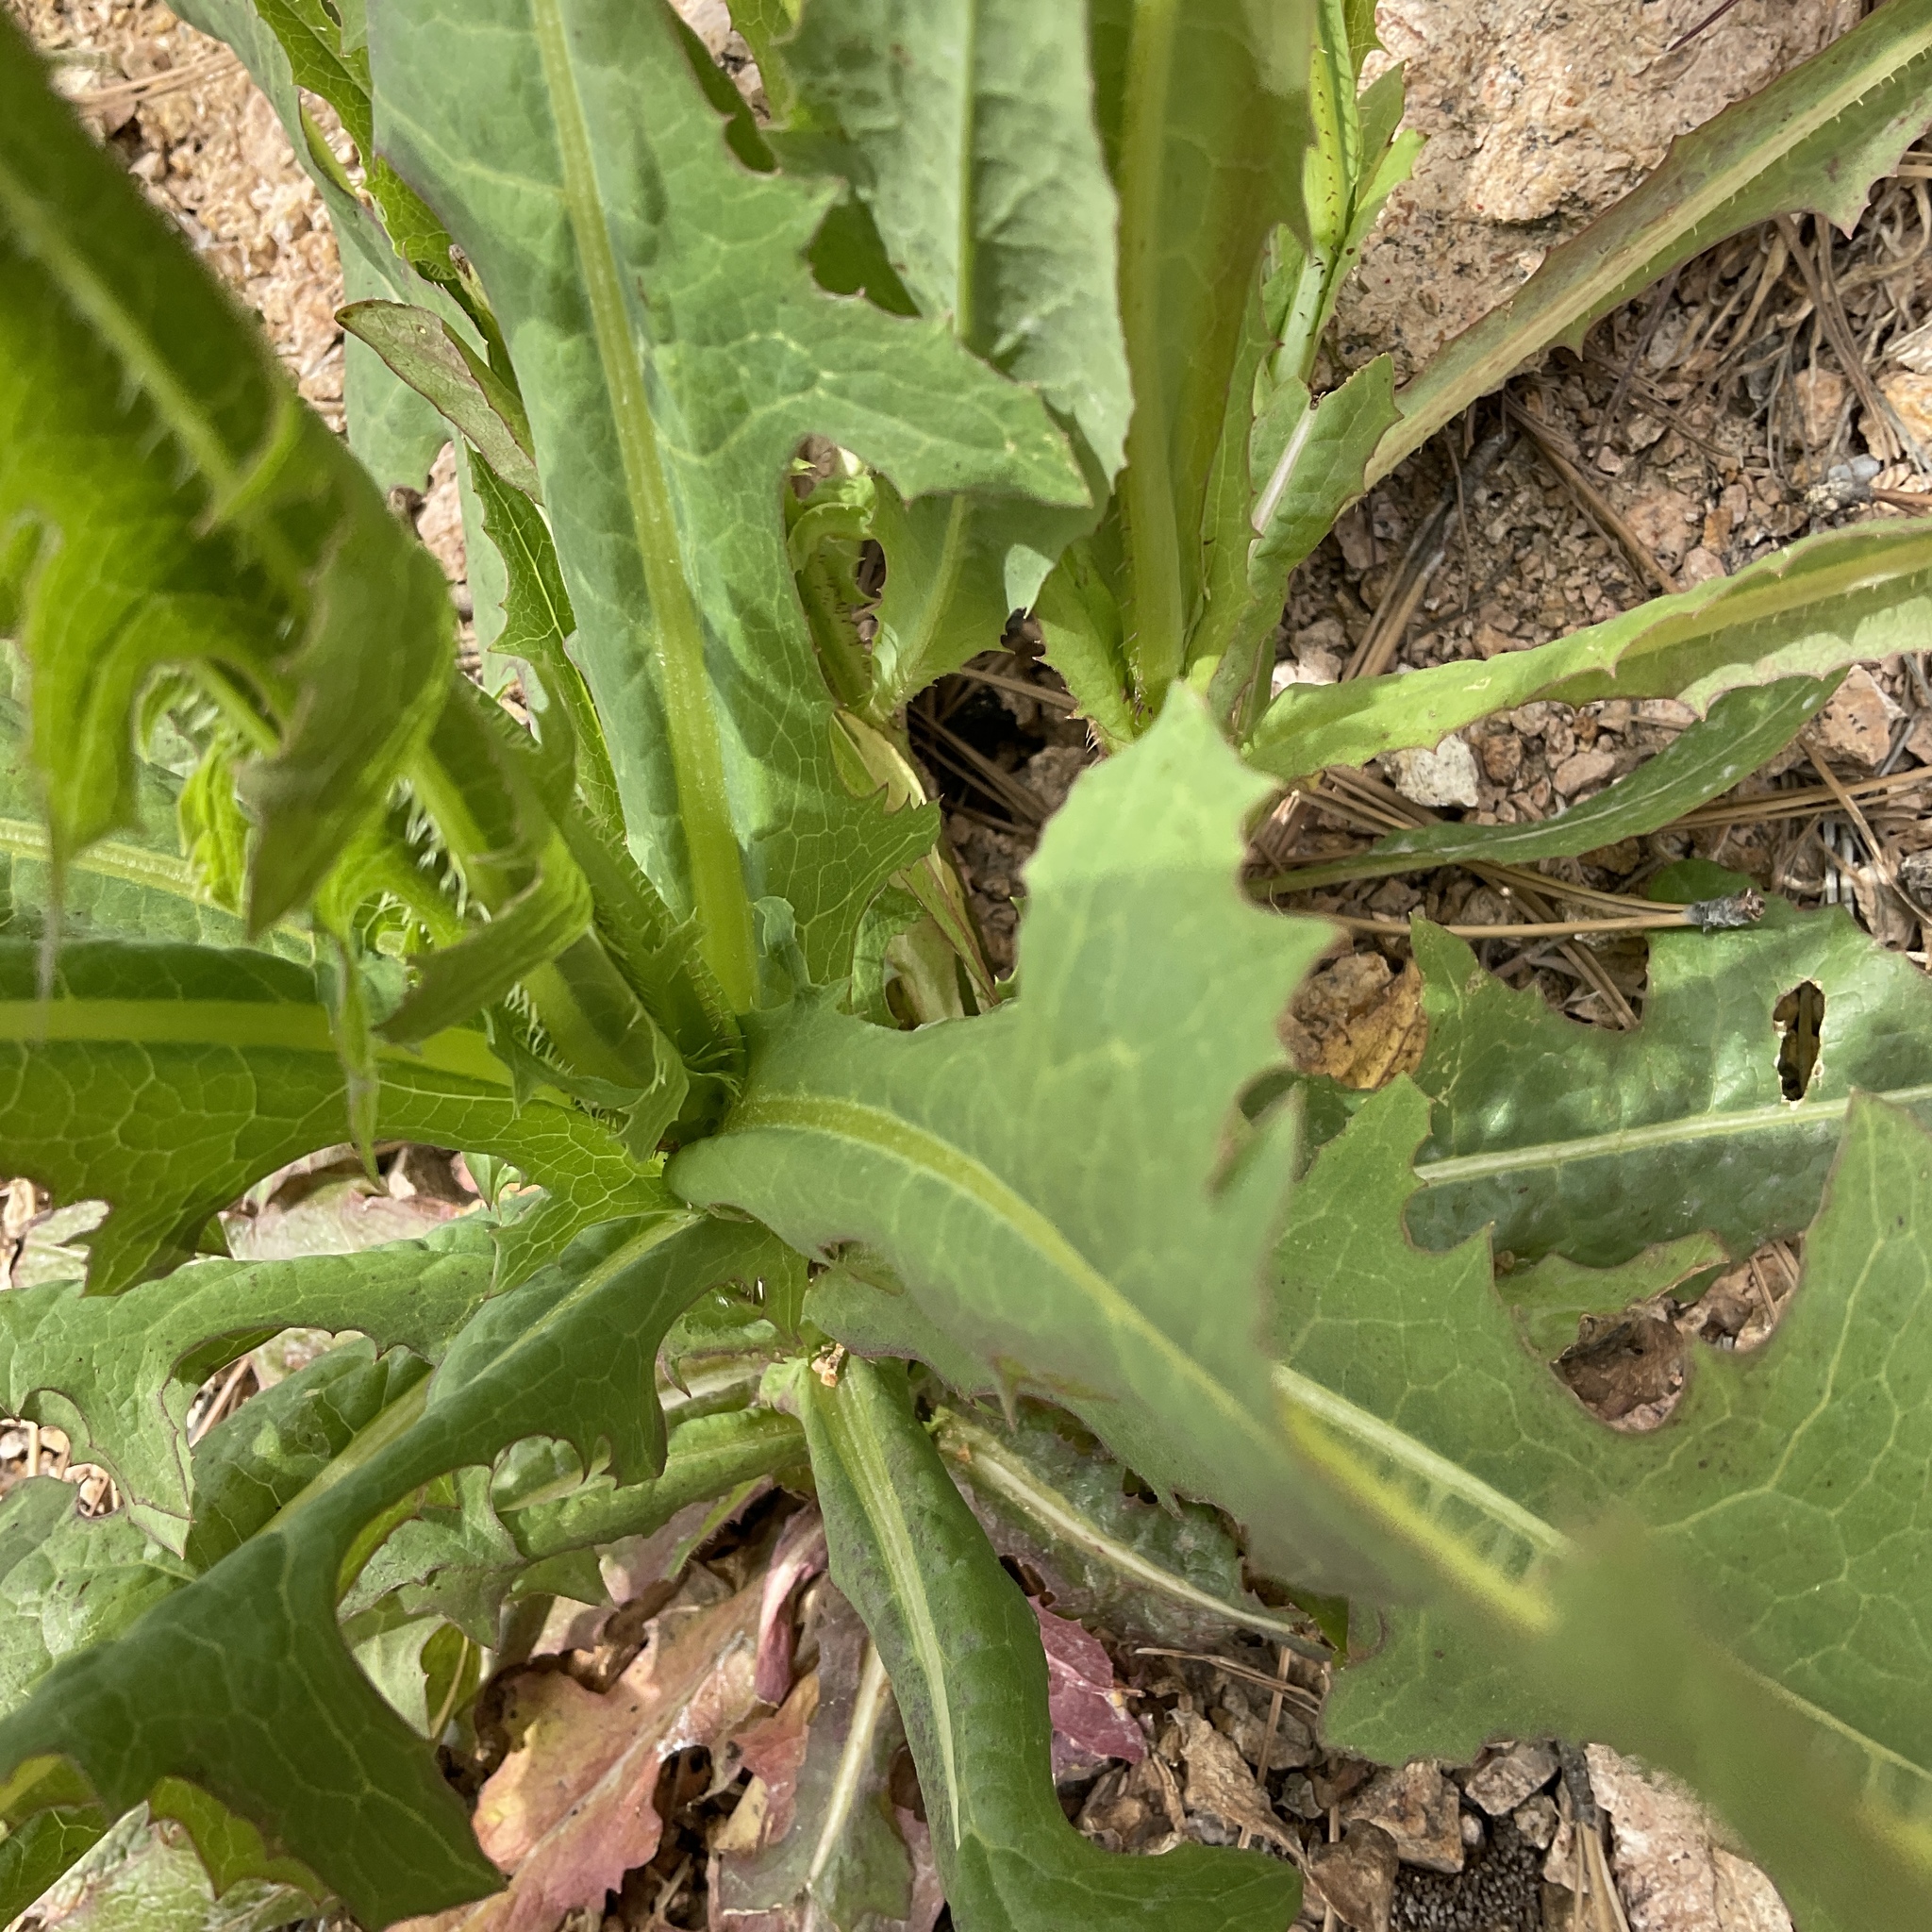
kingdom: Plantae
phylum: Tracheophyta
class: Magnoliopsida
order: Asterales
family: Asteraceae
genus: Lactuca
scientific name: Lactuca serriola
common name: Prickly lettuce
